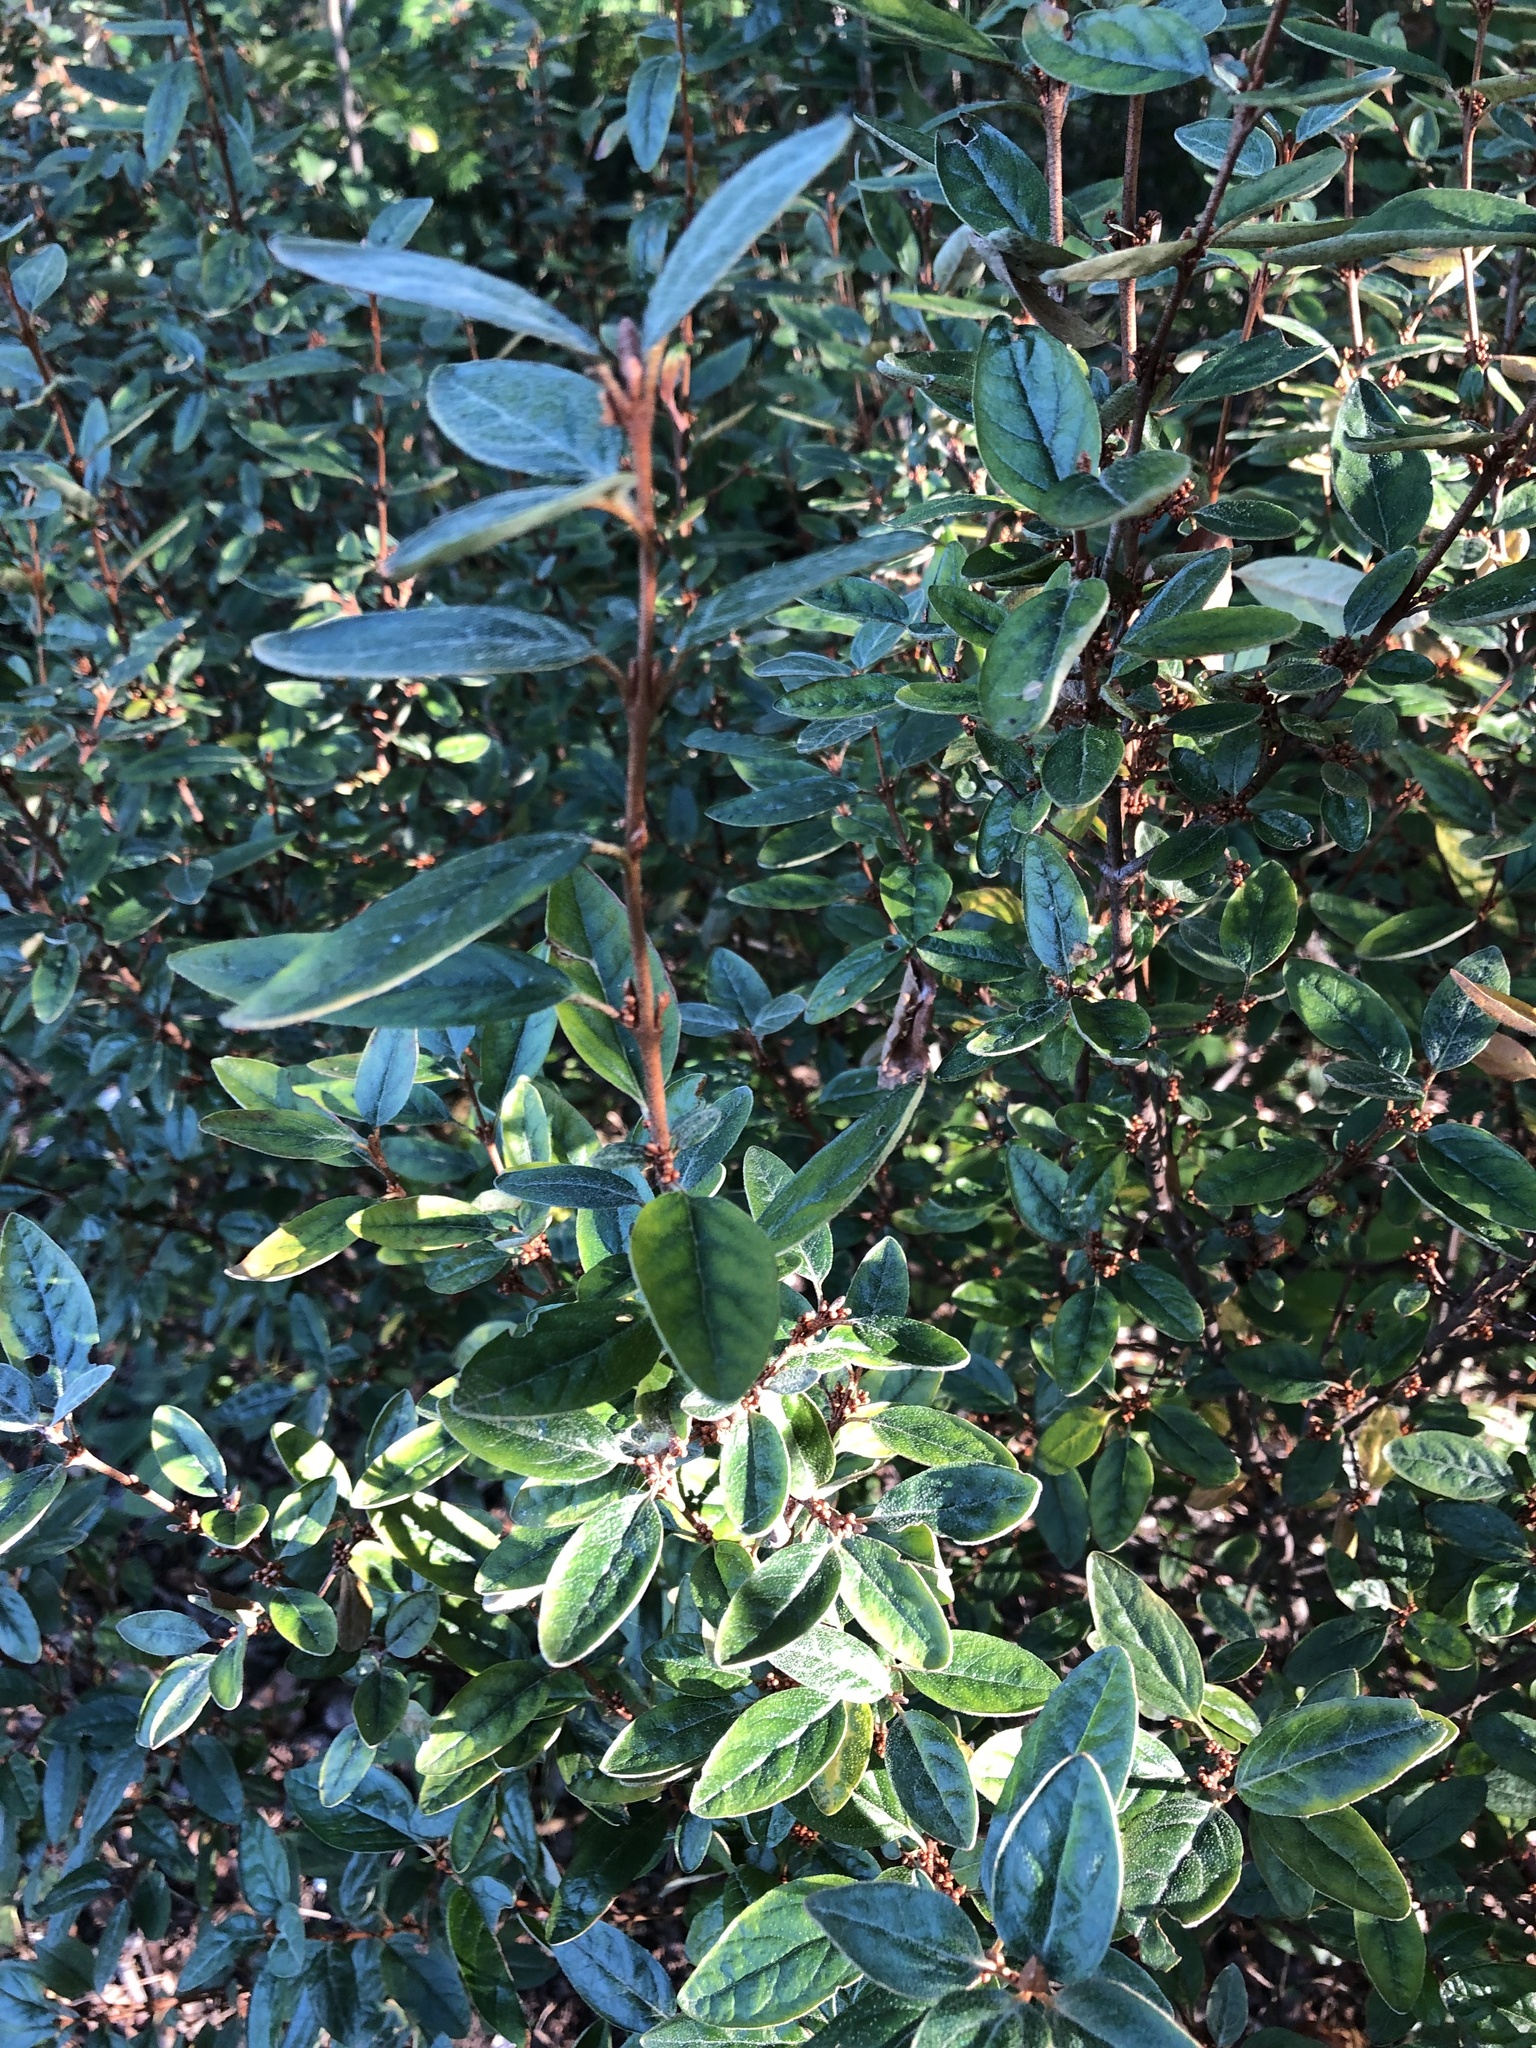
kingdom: Plantae
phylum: Tracheophyta
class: Magnoliopsida
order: Rosales
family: Elaeagnaceae
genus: Shepherdia
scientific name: Shepherdia canadensis
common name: Soapberry
